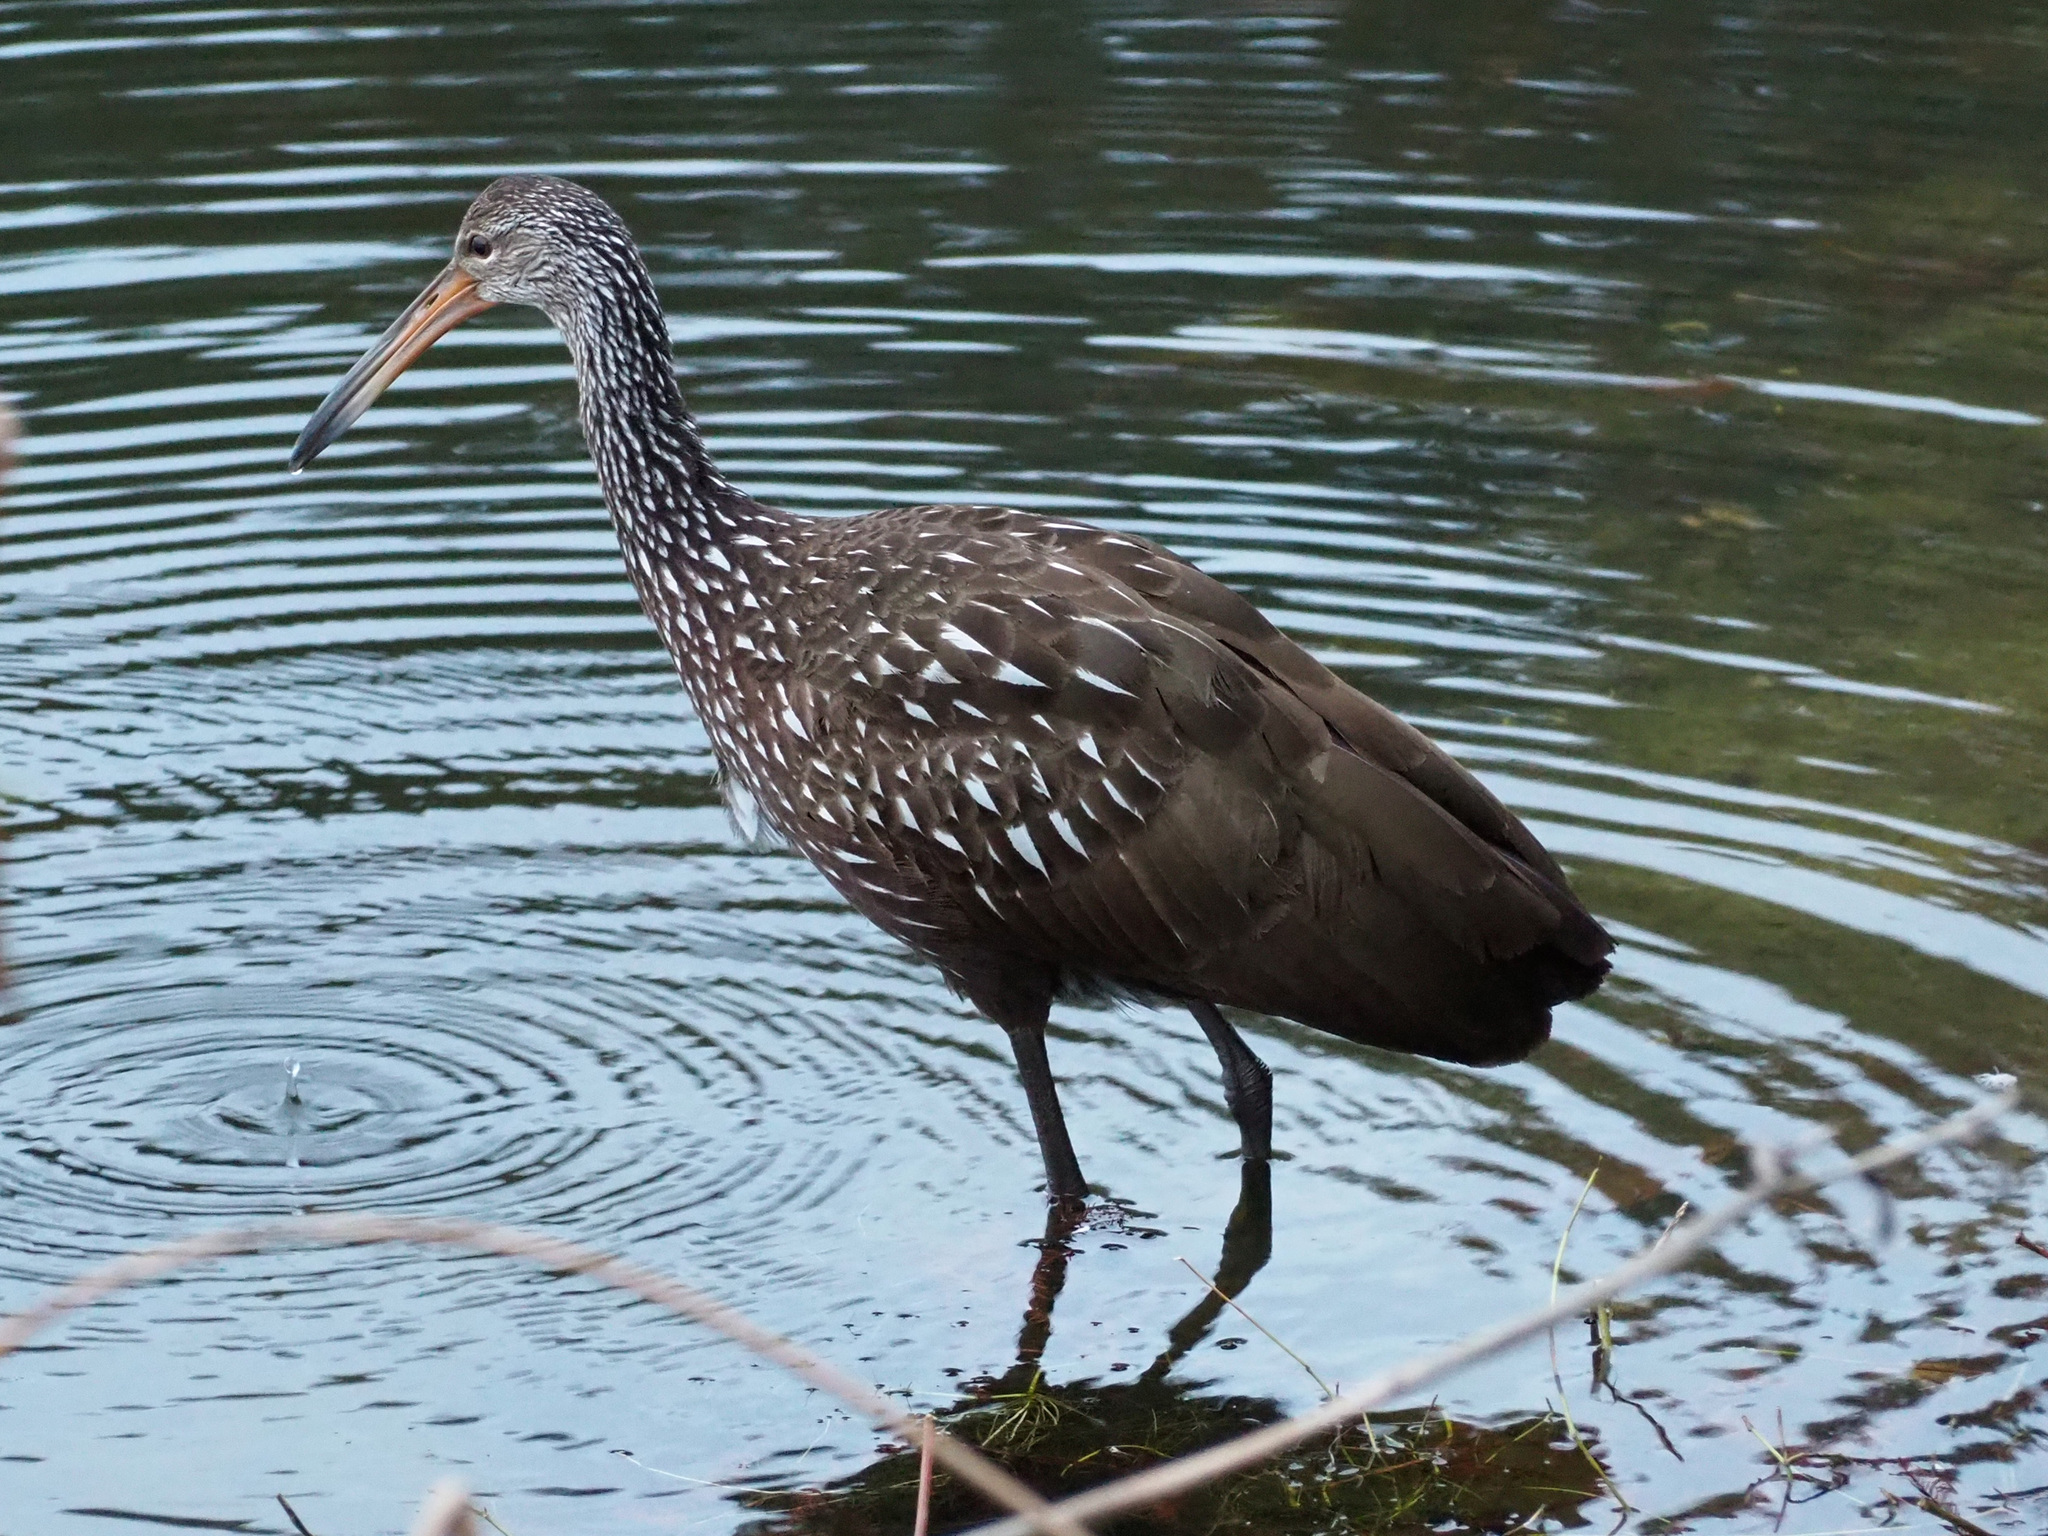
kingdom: Animalia
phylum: Chordata
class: Aves
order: Gruiformes
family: Aramidae
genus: Aramus
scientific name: Aramus guarauna
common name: Limpkin
